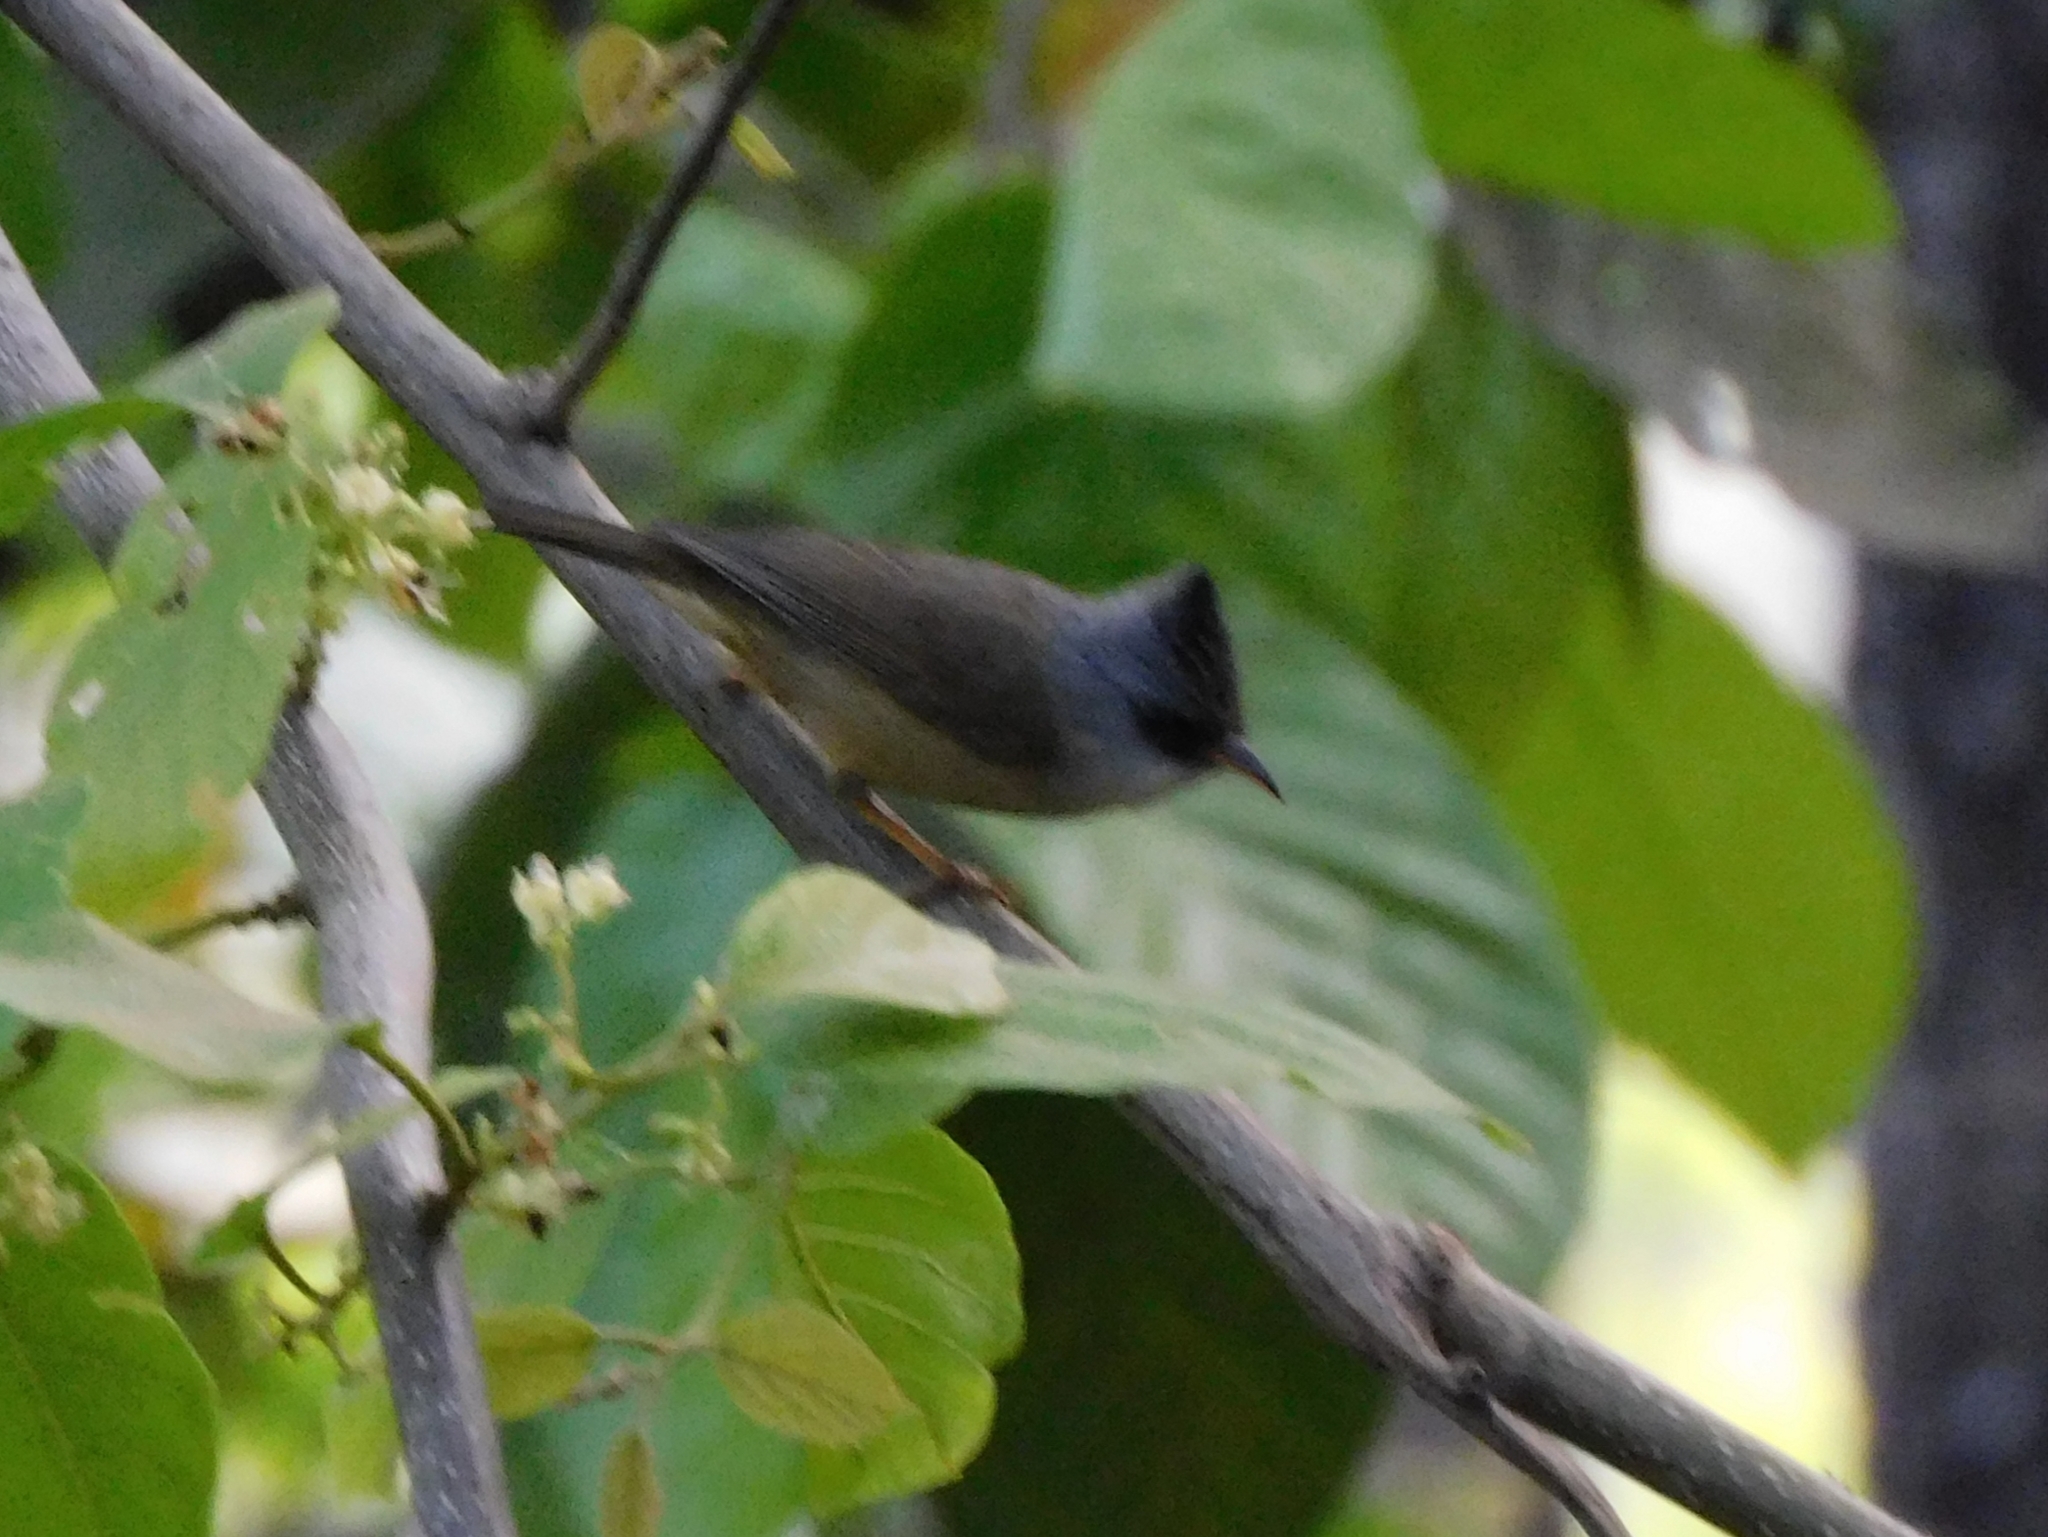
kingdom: Animalia
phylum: Chordata
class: Aves
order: Passeriformes
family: Zosteropidae
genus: Yuhina
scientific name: Yuhina nigrimenta
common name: Black-chinned yuhina
